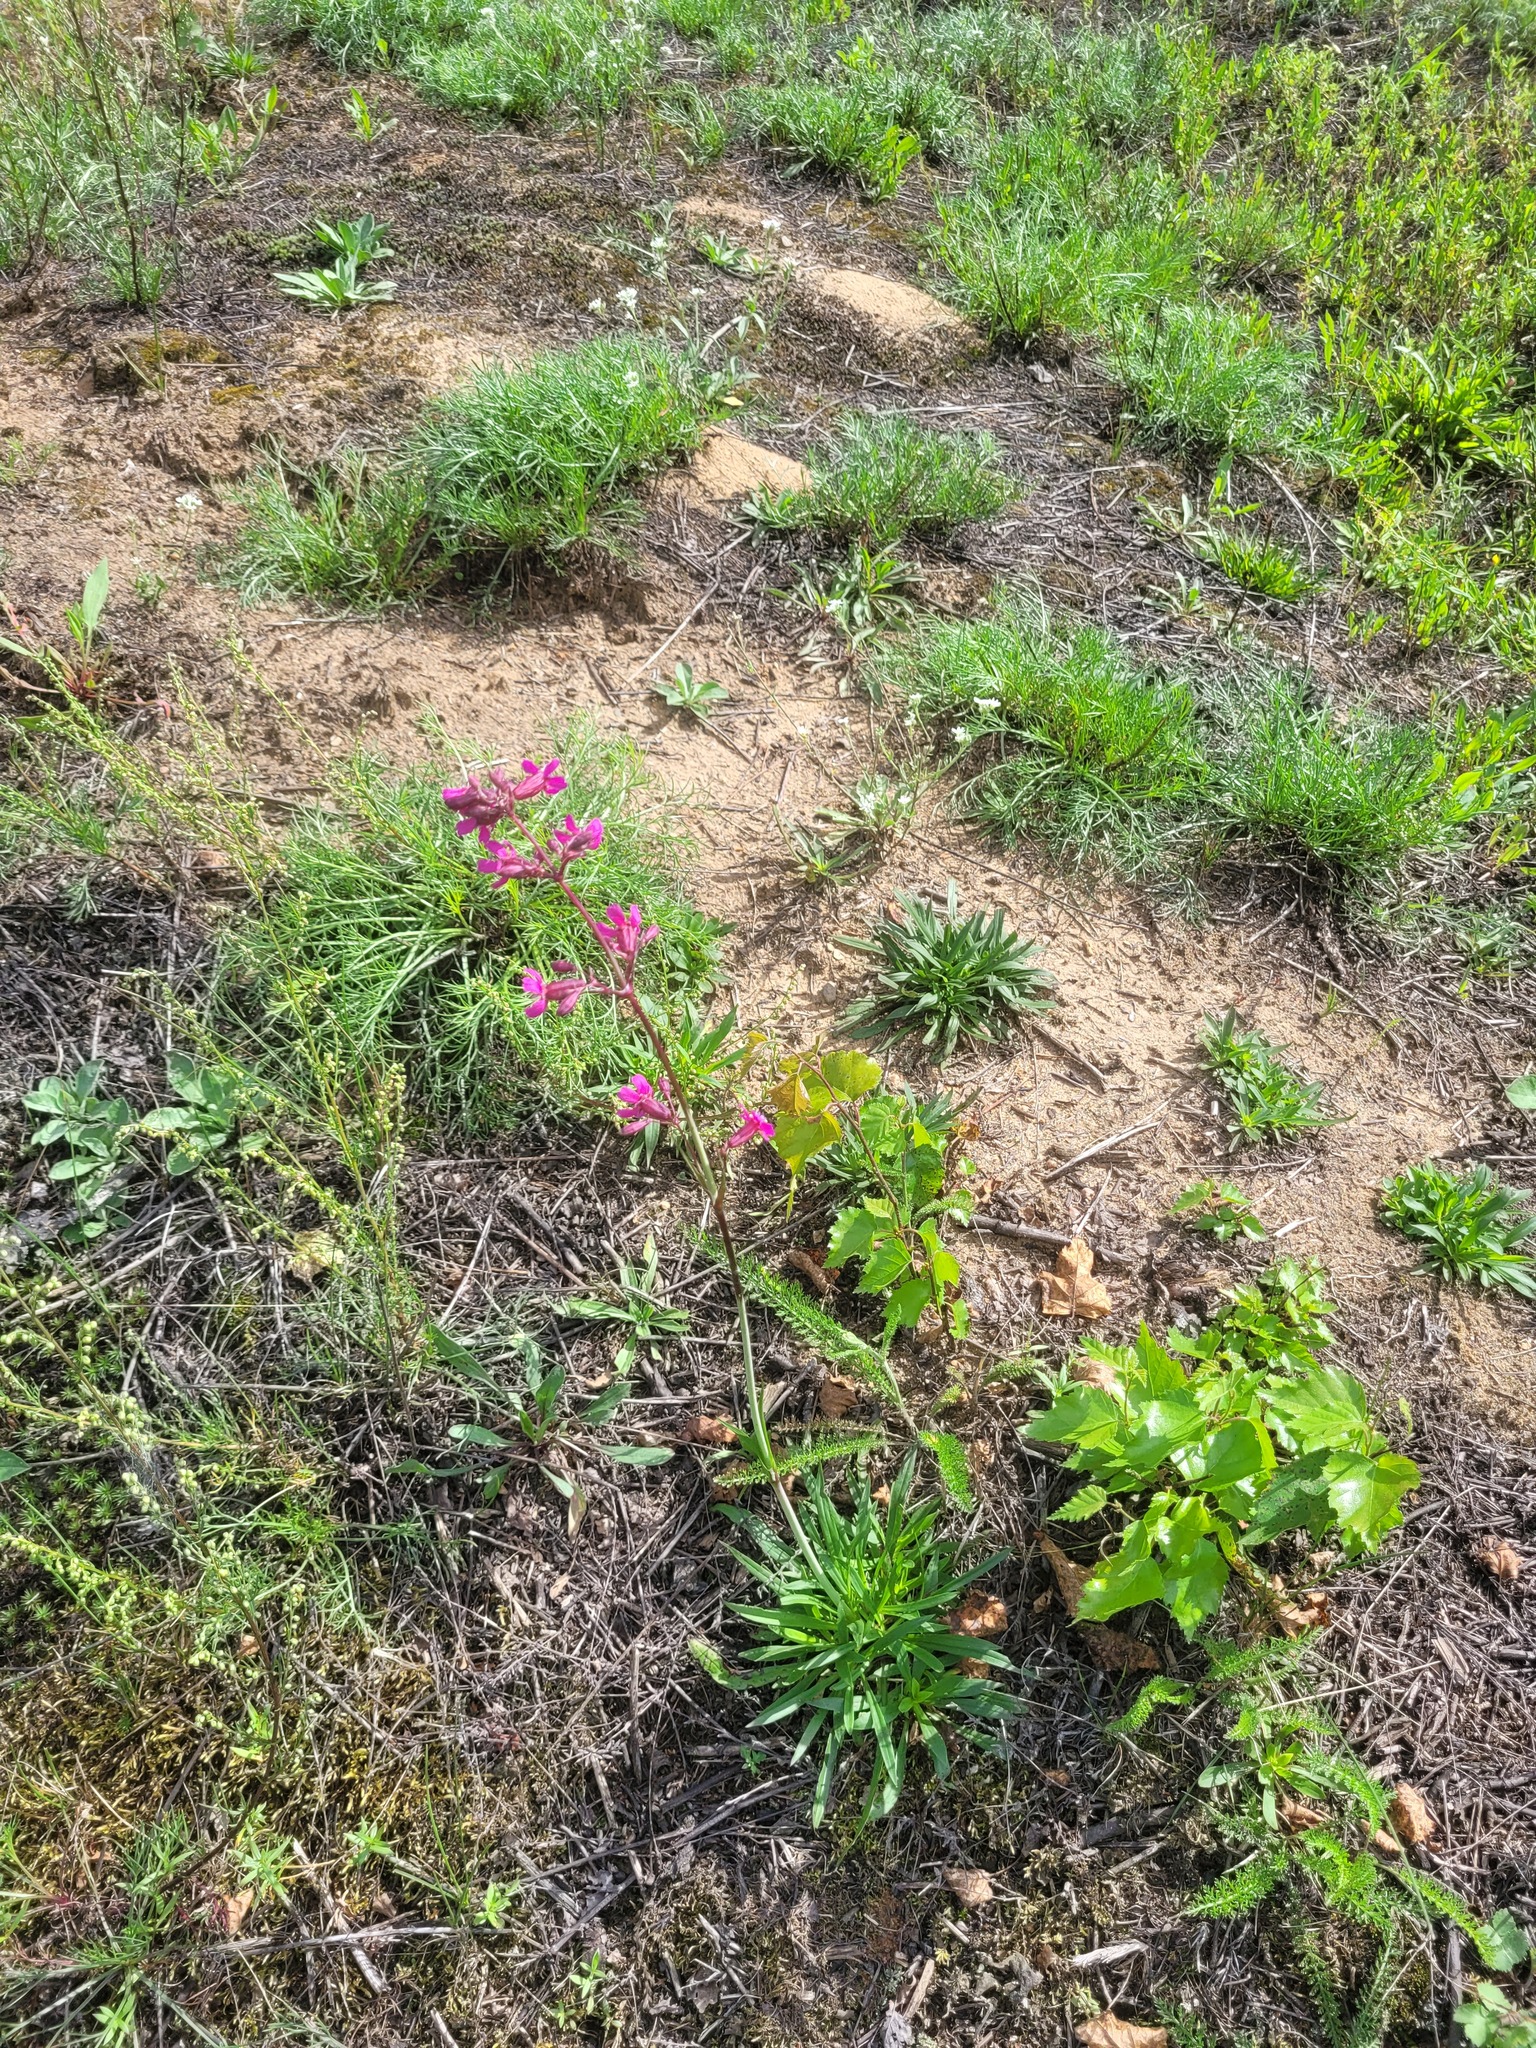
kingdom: Plantae
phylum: Tracheophyta
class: Magnoliopsida
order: Caryophyllales
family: Caryophyllaceae
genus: Viscaria
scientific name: Viscaria vulgaris
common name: Clammy campion
